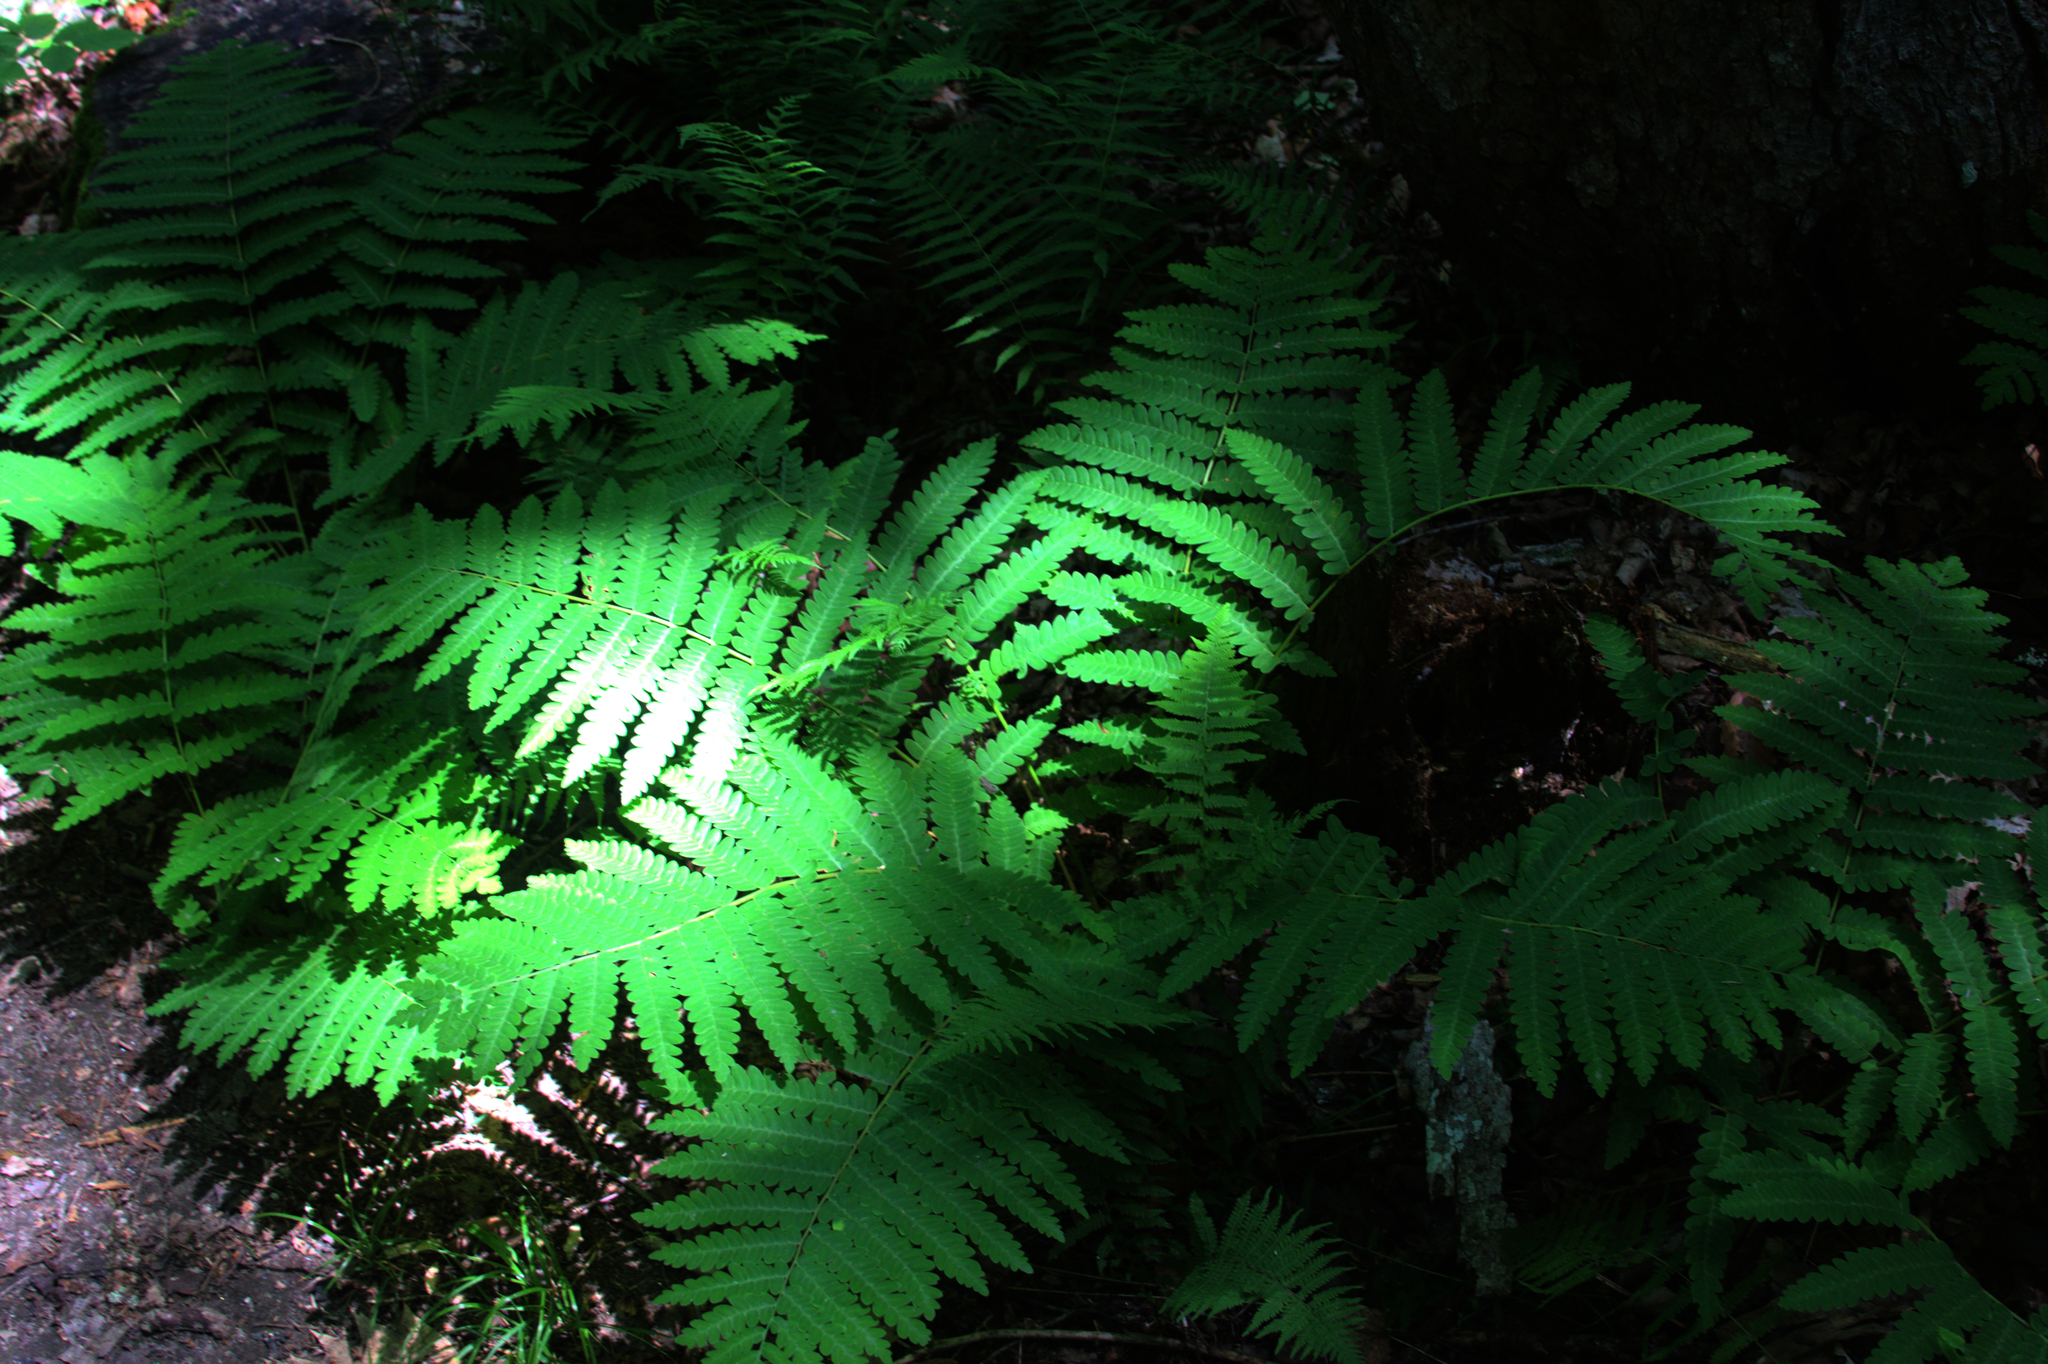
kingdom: Plantae
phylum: Tracheophyta
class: Polypodiopsida
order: Osmundales
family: Osmundaceae
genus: Claytosmunda
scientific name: Claytosmunda claytoniana
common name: Clayton's fern
